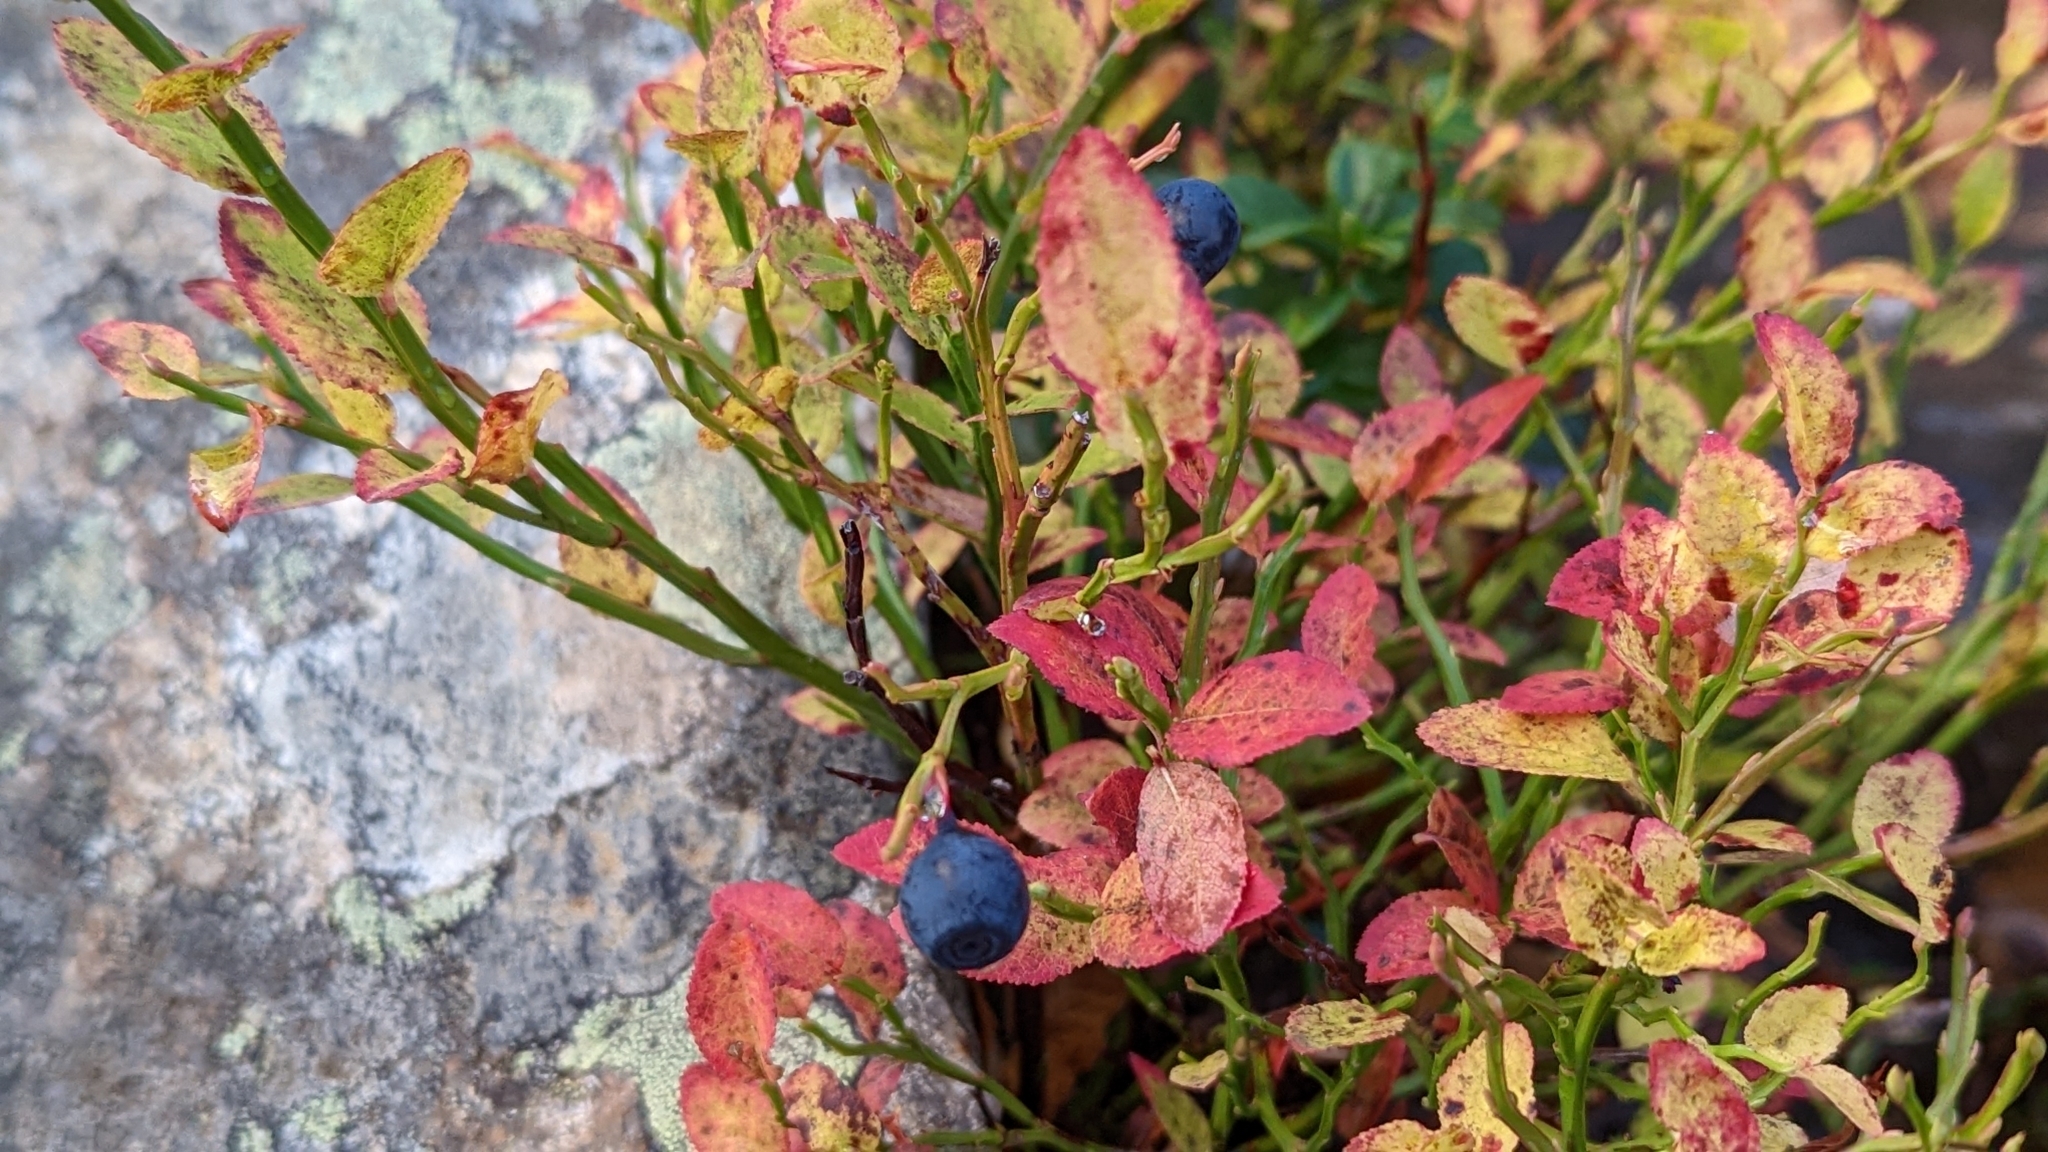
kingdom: Plantae
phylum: Tracheophyta
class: Magnoliopsida
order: Ericales
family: Ericaceae
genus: Vaccinium
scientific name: Vaccinium myrtillus
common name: Bilberry
